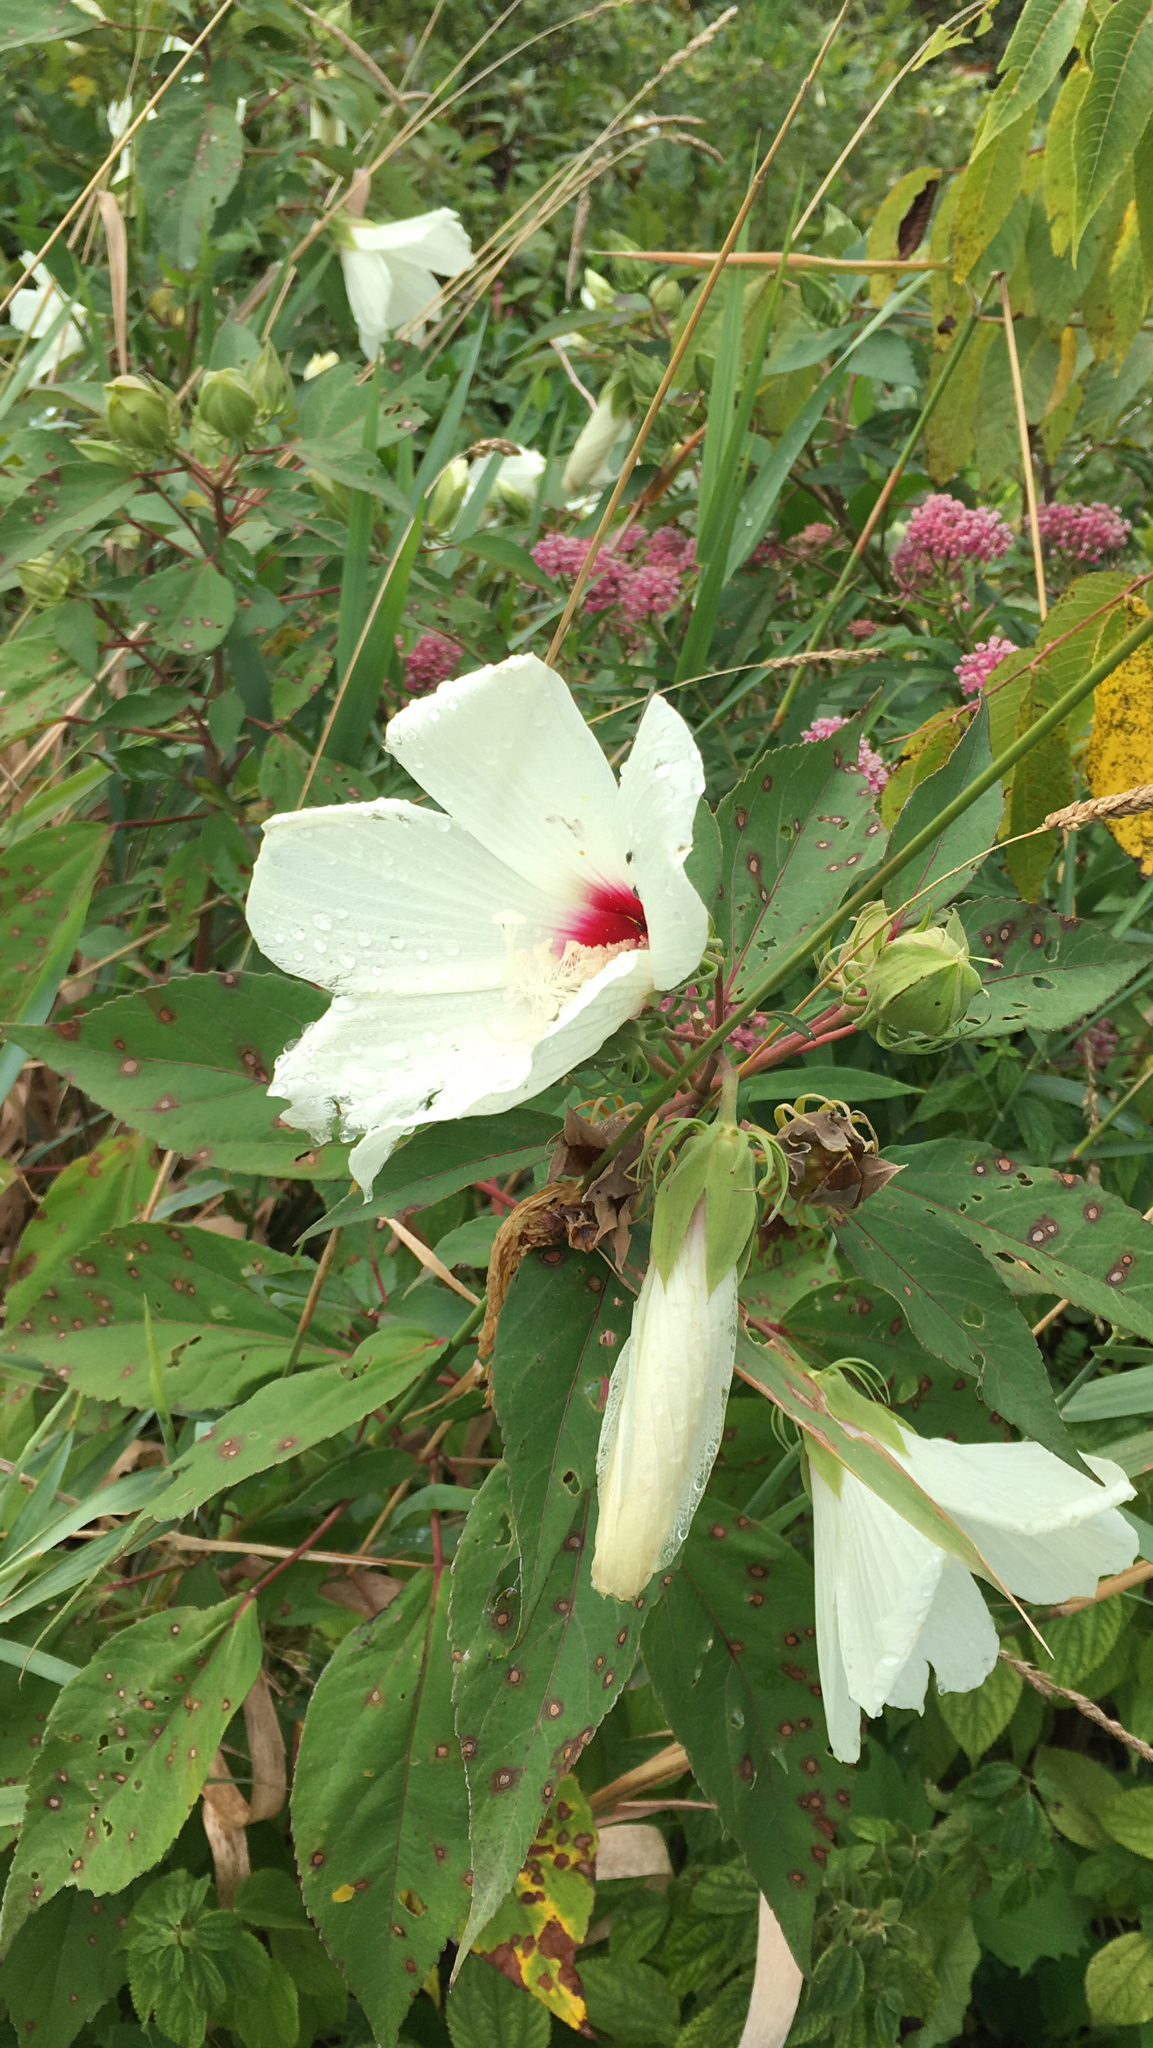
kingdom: Plantae
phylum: Tracheophyta
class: Magnoliopsida
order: Malvales
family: Malvaceae
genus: Hibiscus
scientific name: Hibiscus moscheutos
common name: Common rose-mallow
